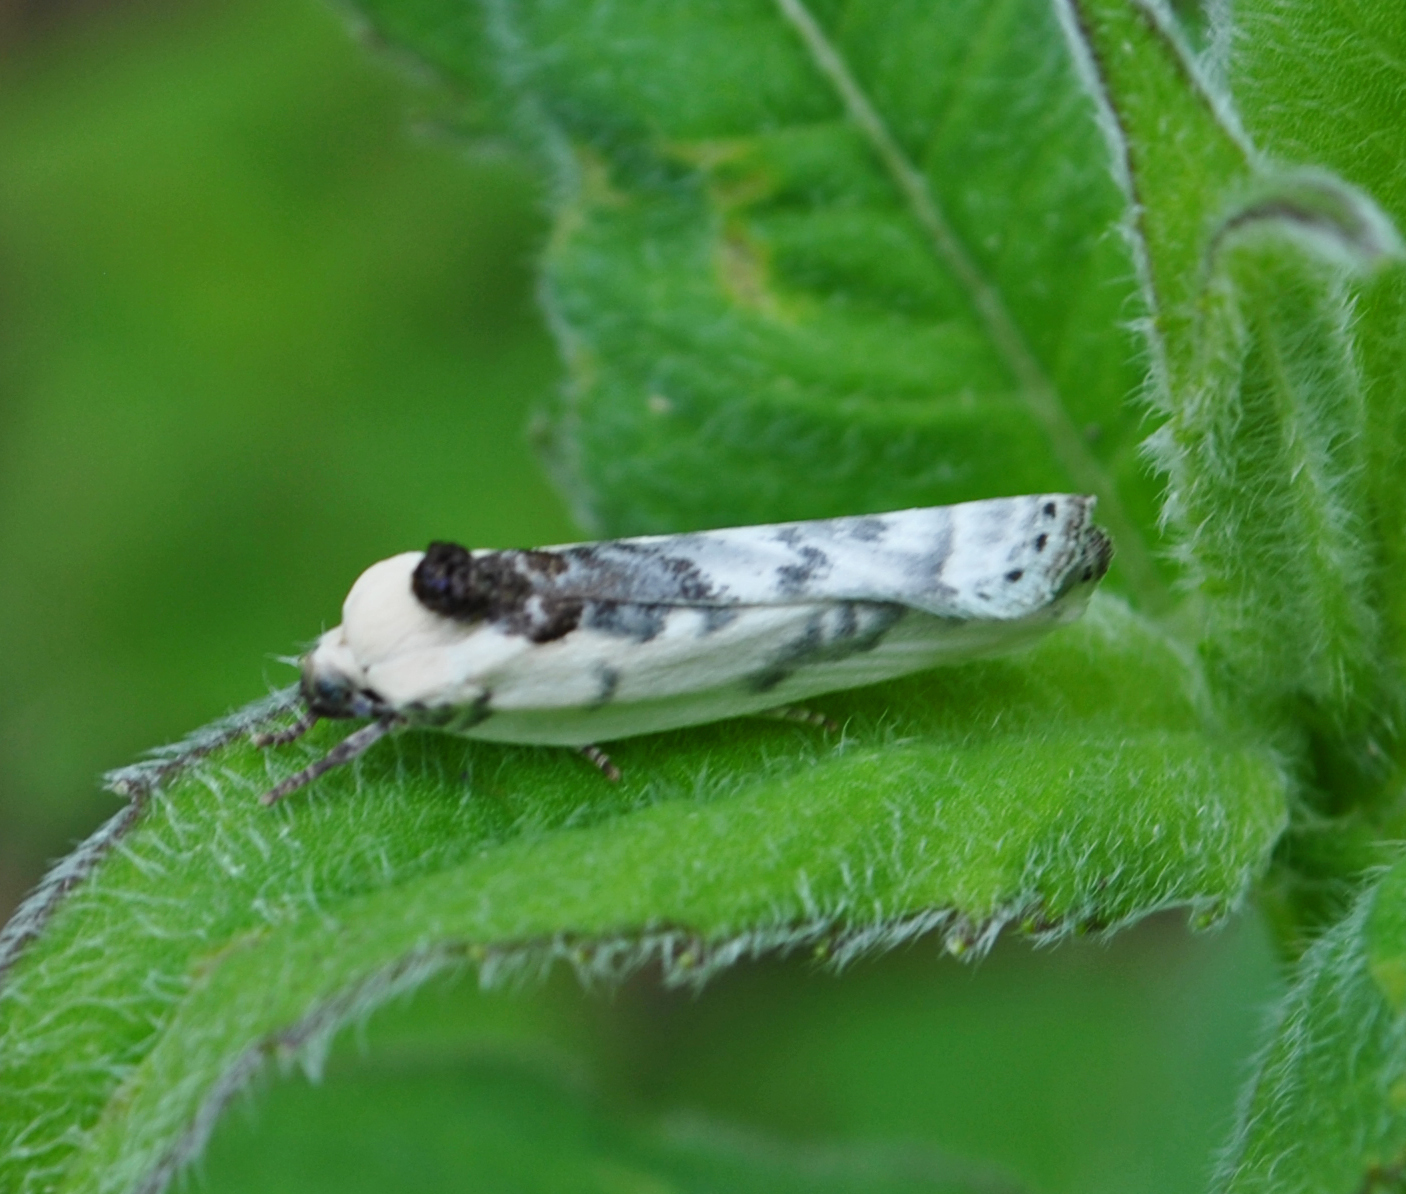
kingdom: Animalia
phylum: Arthropoda
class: Insecta
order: Lepidoptera
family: Depressariidae
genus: Antaeotricha
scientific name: Antaeotricha schlaegeri
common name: Schlaeger's fruitworm moth
